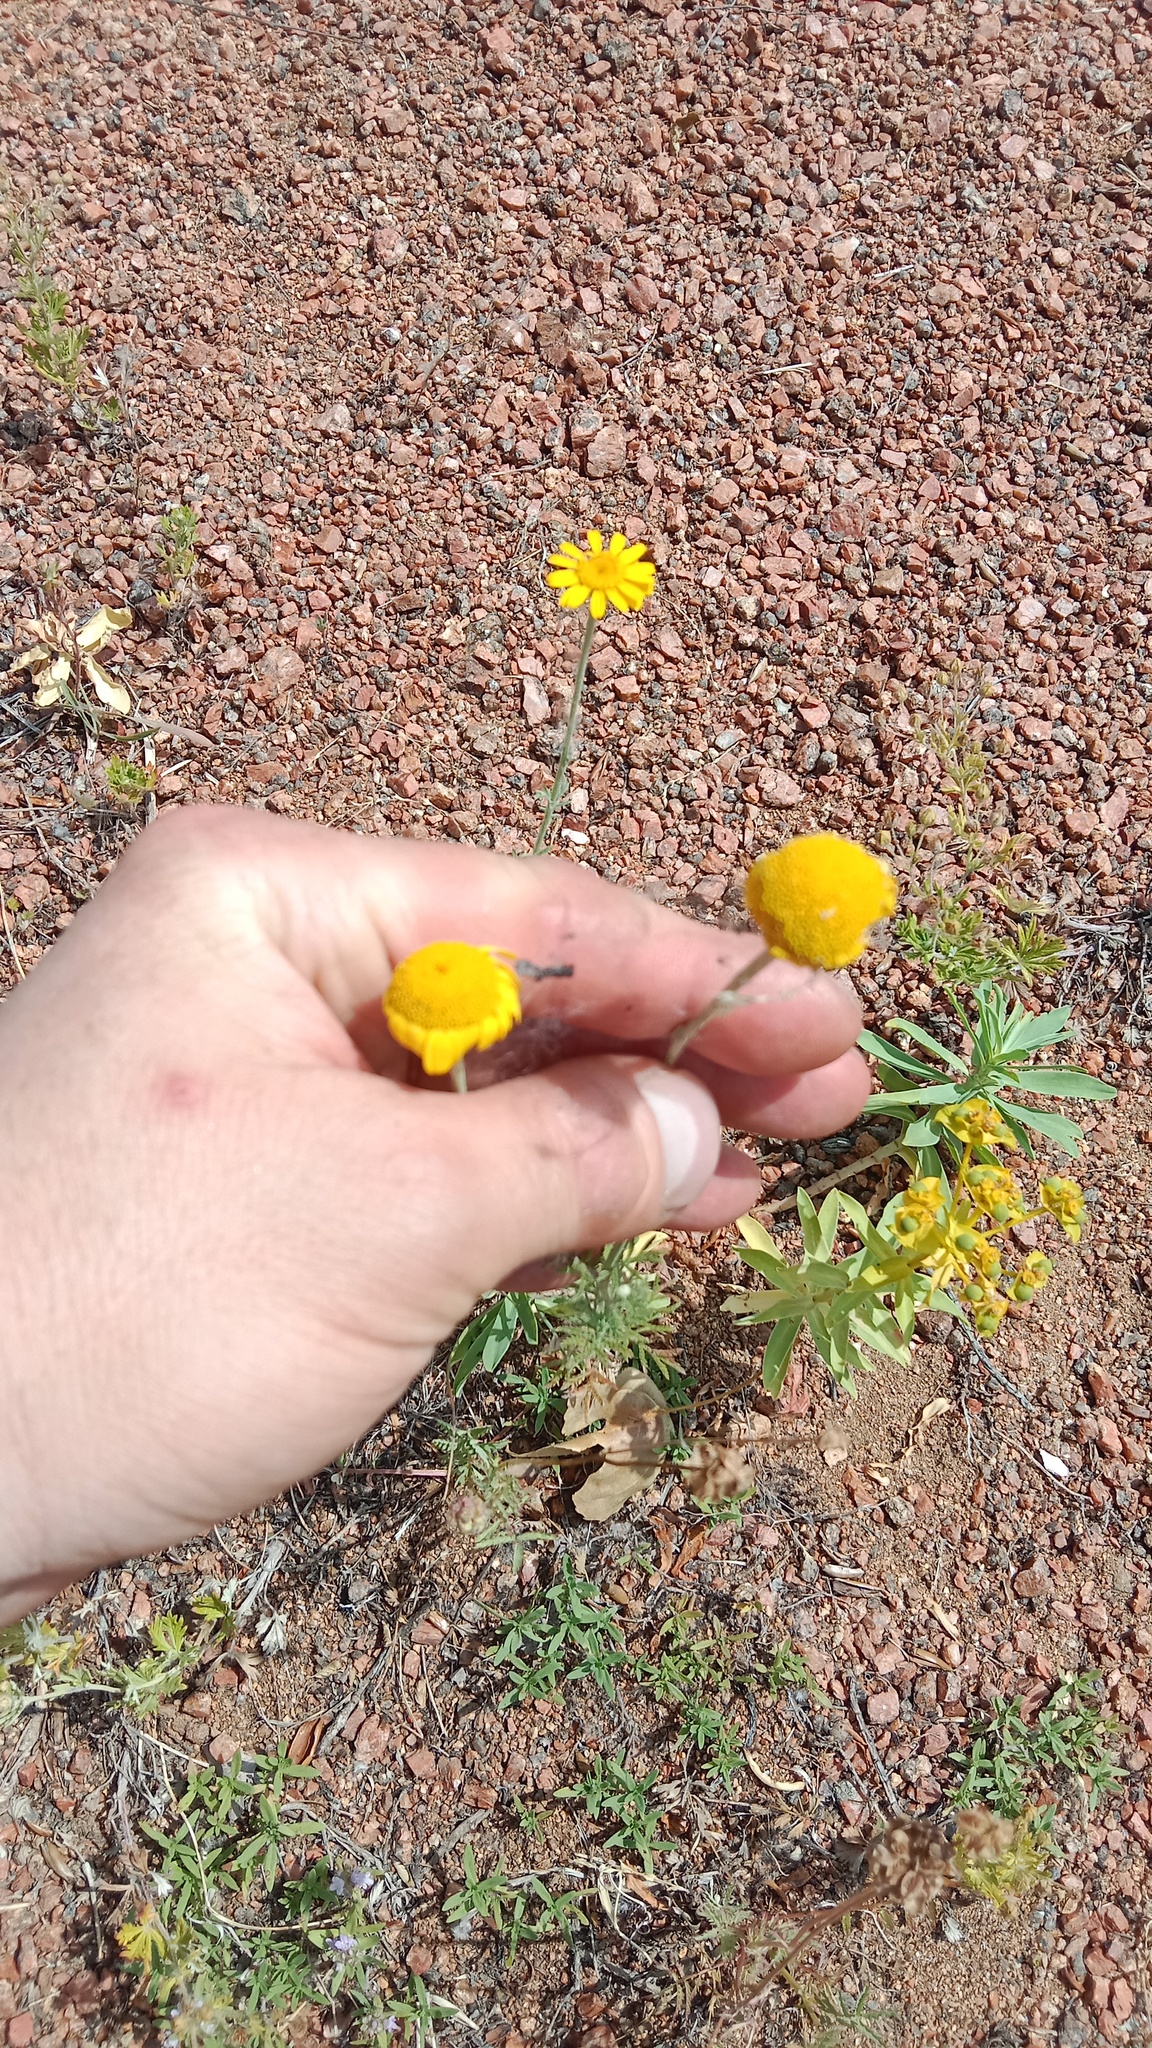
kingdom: Plantae
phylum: Tracheophyta
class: Magnoliopsida
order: Asterales
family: Asteraceae
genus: Cota
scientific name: Cota tinctoria
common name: Golden chamomile
